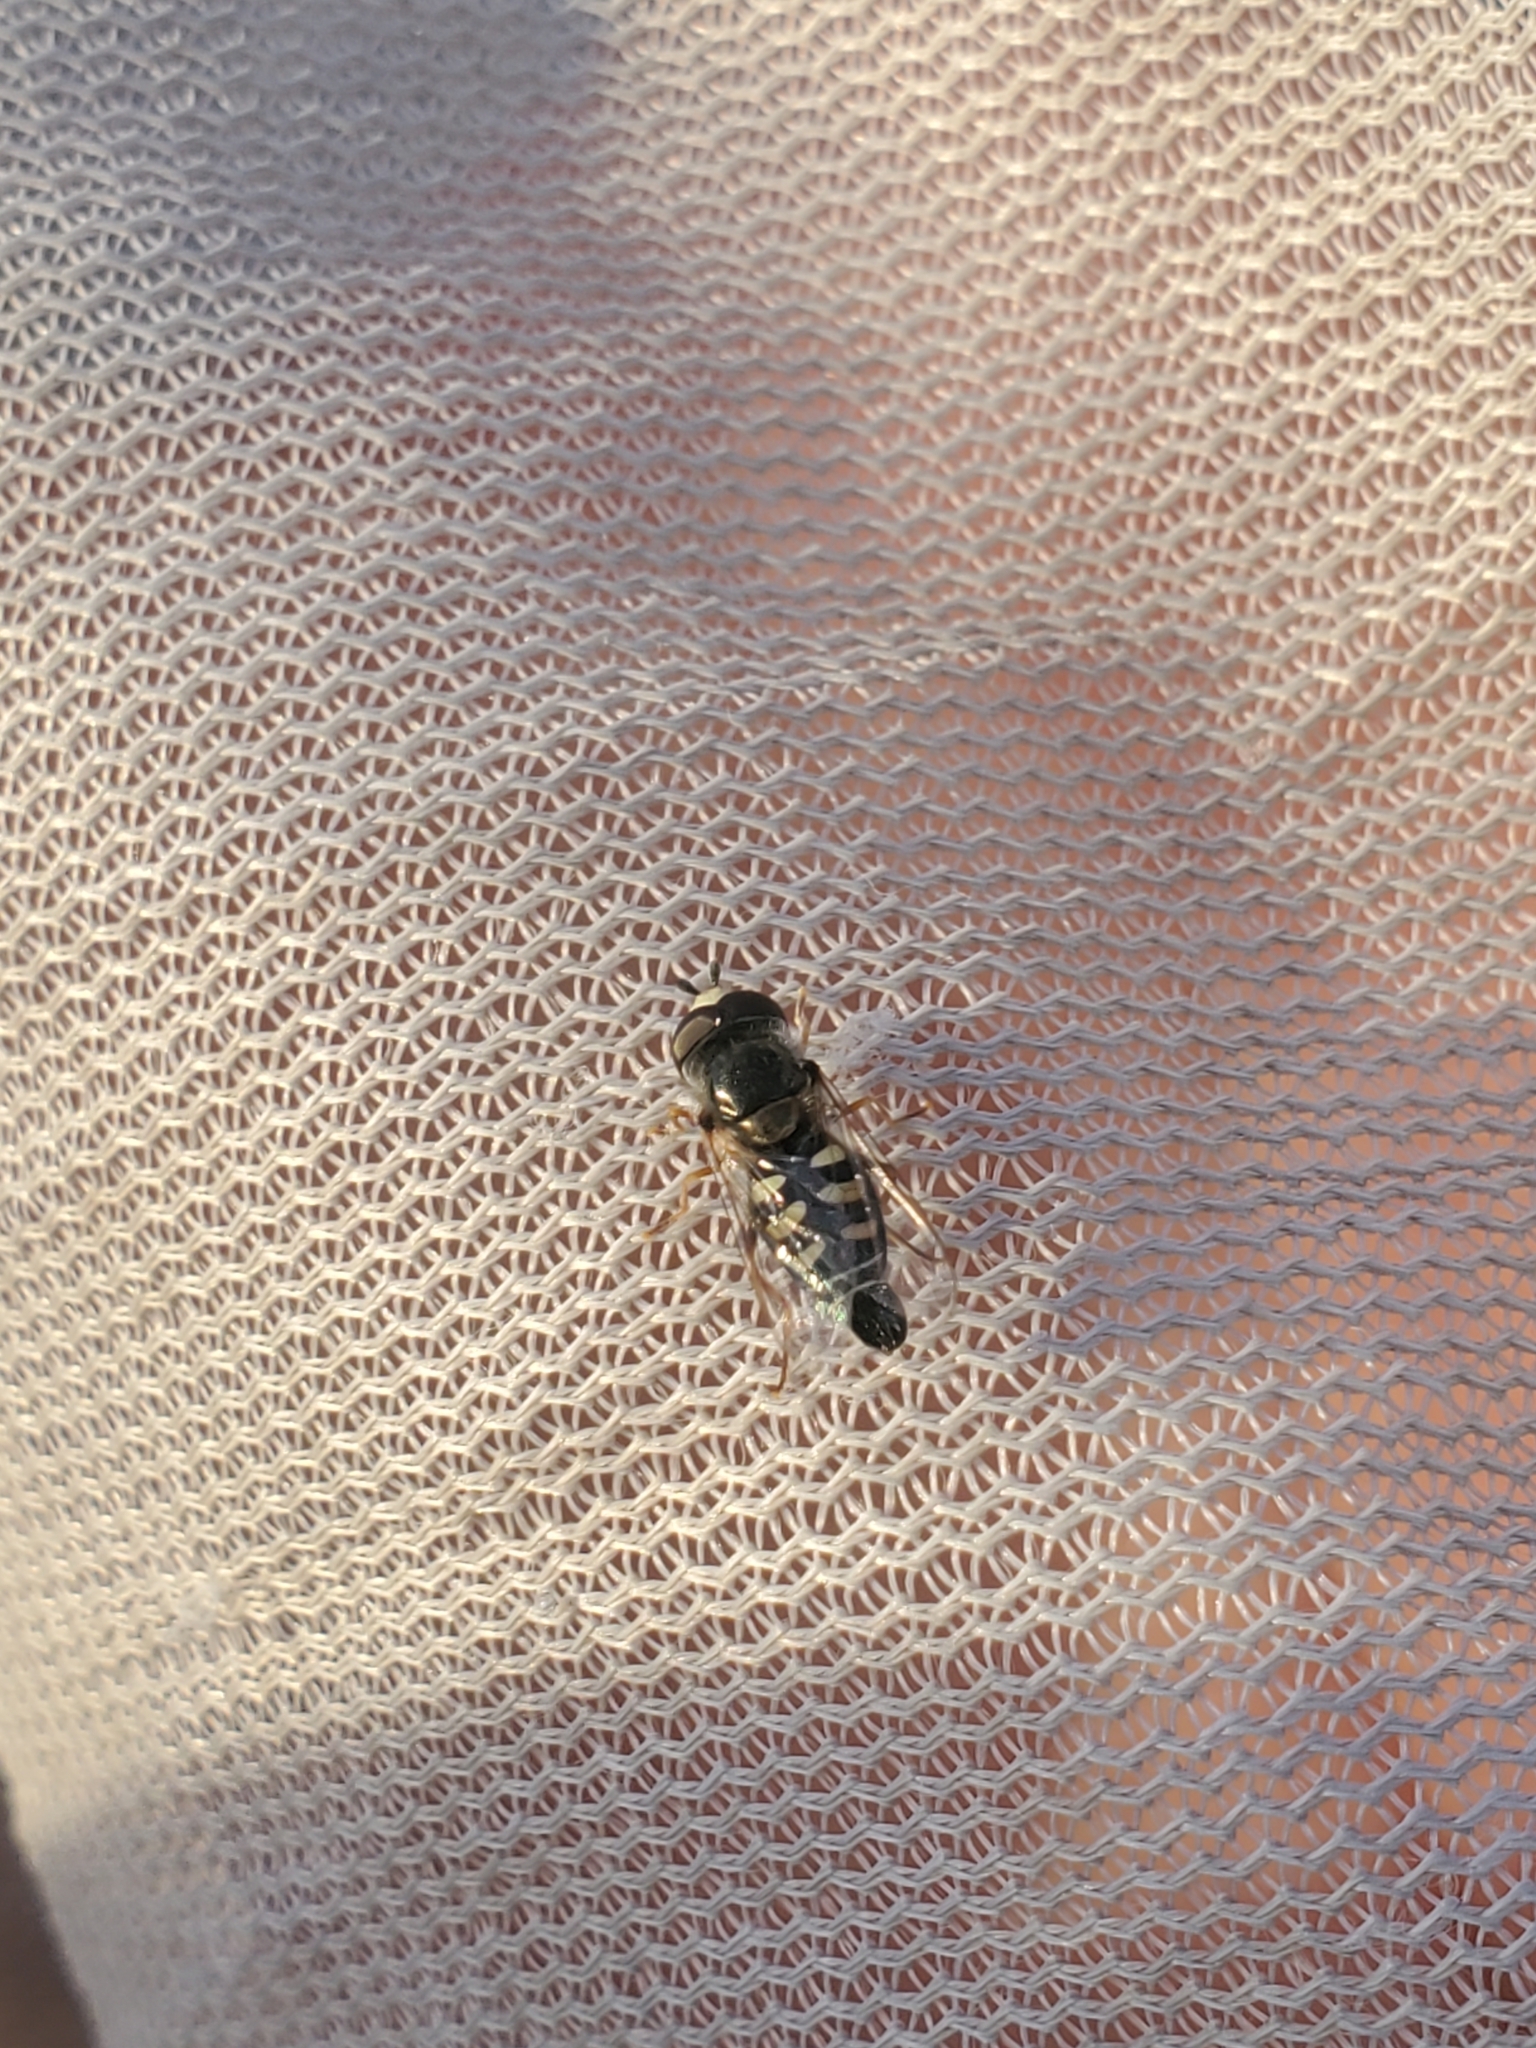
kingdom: Animalia
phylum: Arthropoda
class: Insecta
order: Diptera
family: Syrphidae
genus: Eupeodes
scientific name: Eupeodes volucris
